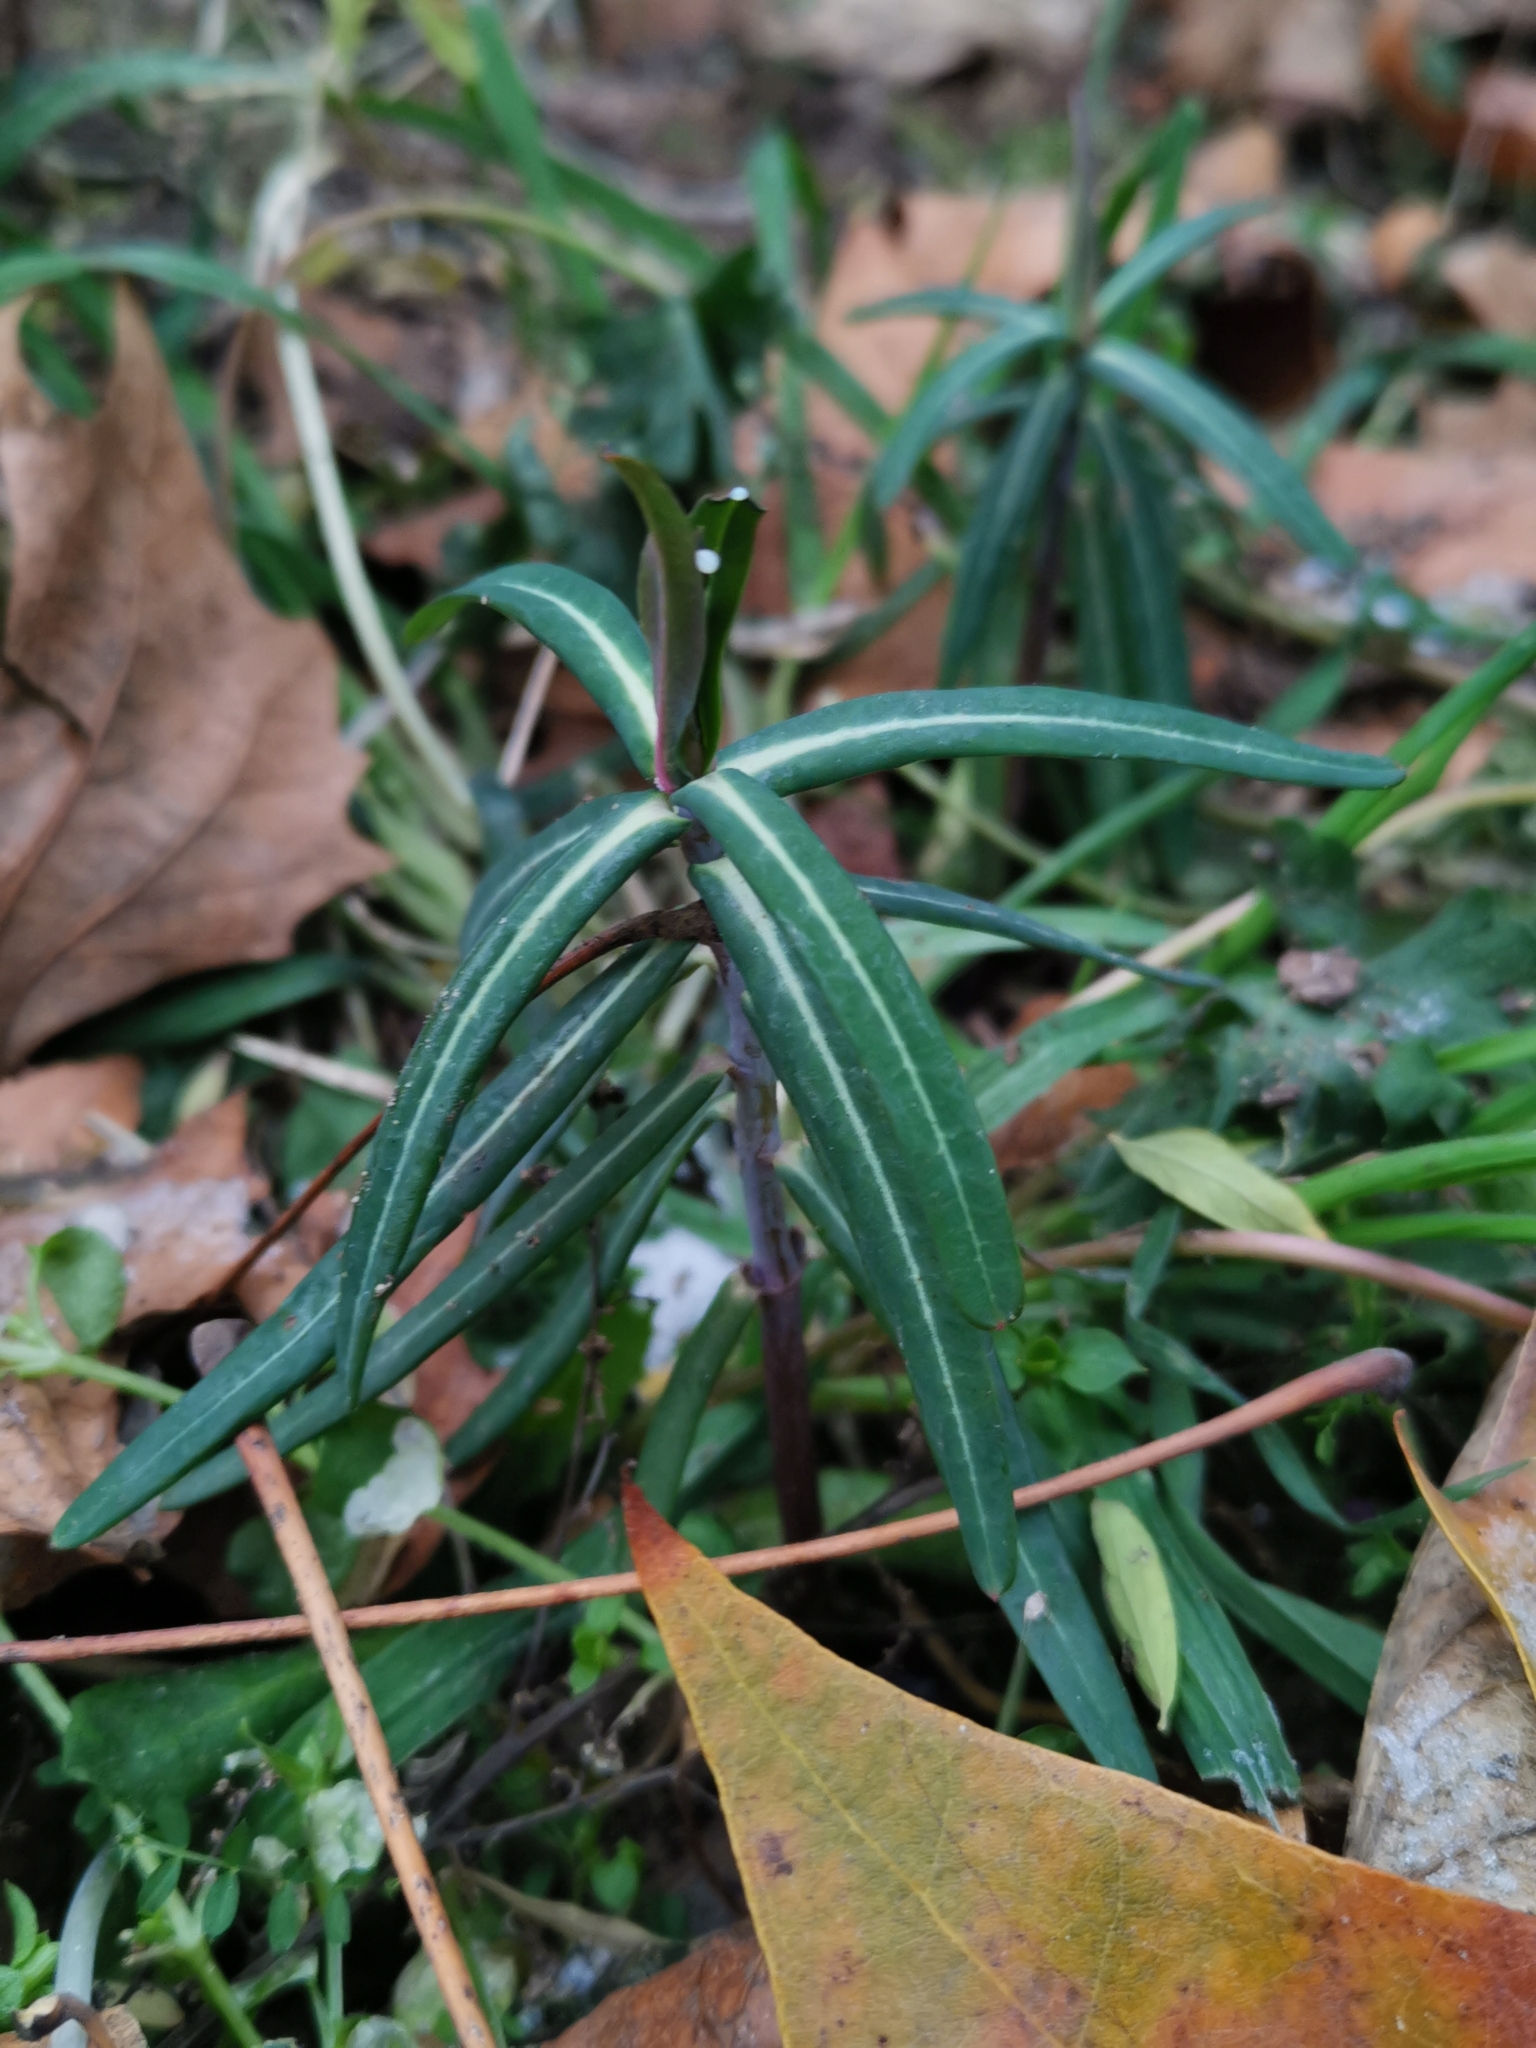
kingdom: Plantae
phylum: Tracheophyta
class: Magnoliopsida
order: Malpighiales
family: Euphorbiaceae
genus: Euphorbia
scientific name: Euphorbia lathyris
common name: Caper spurge
